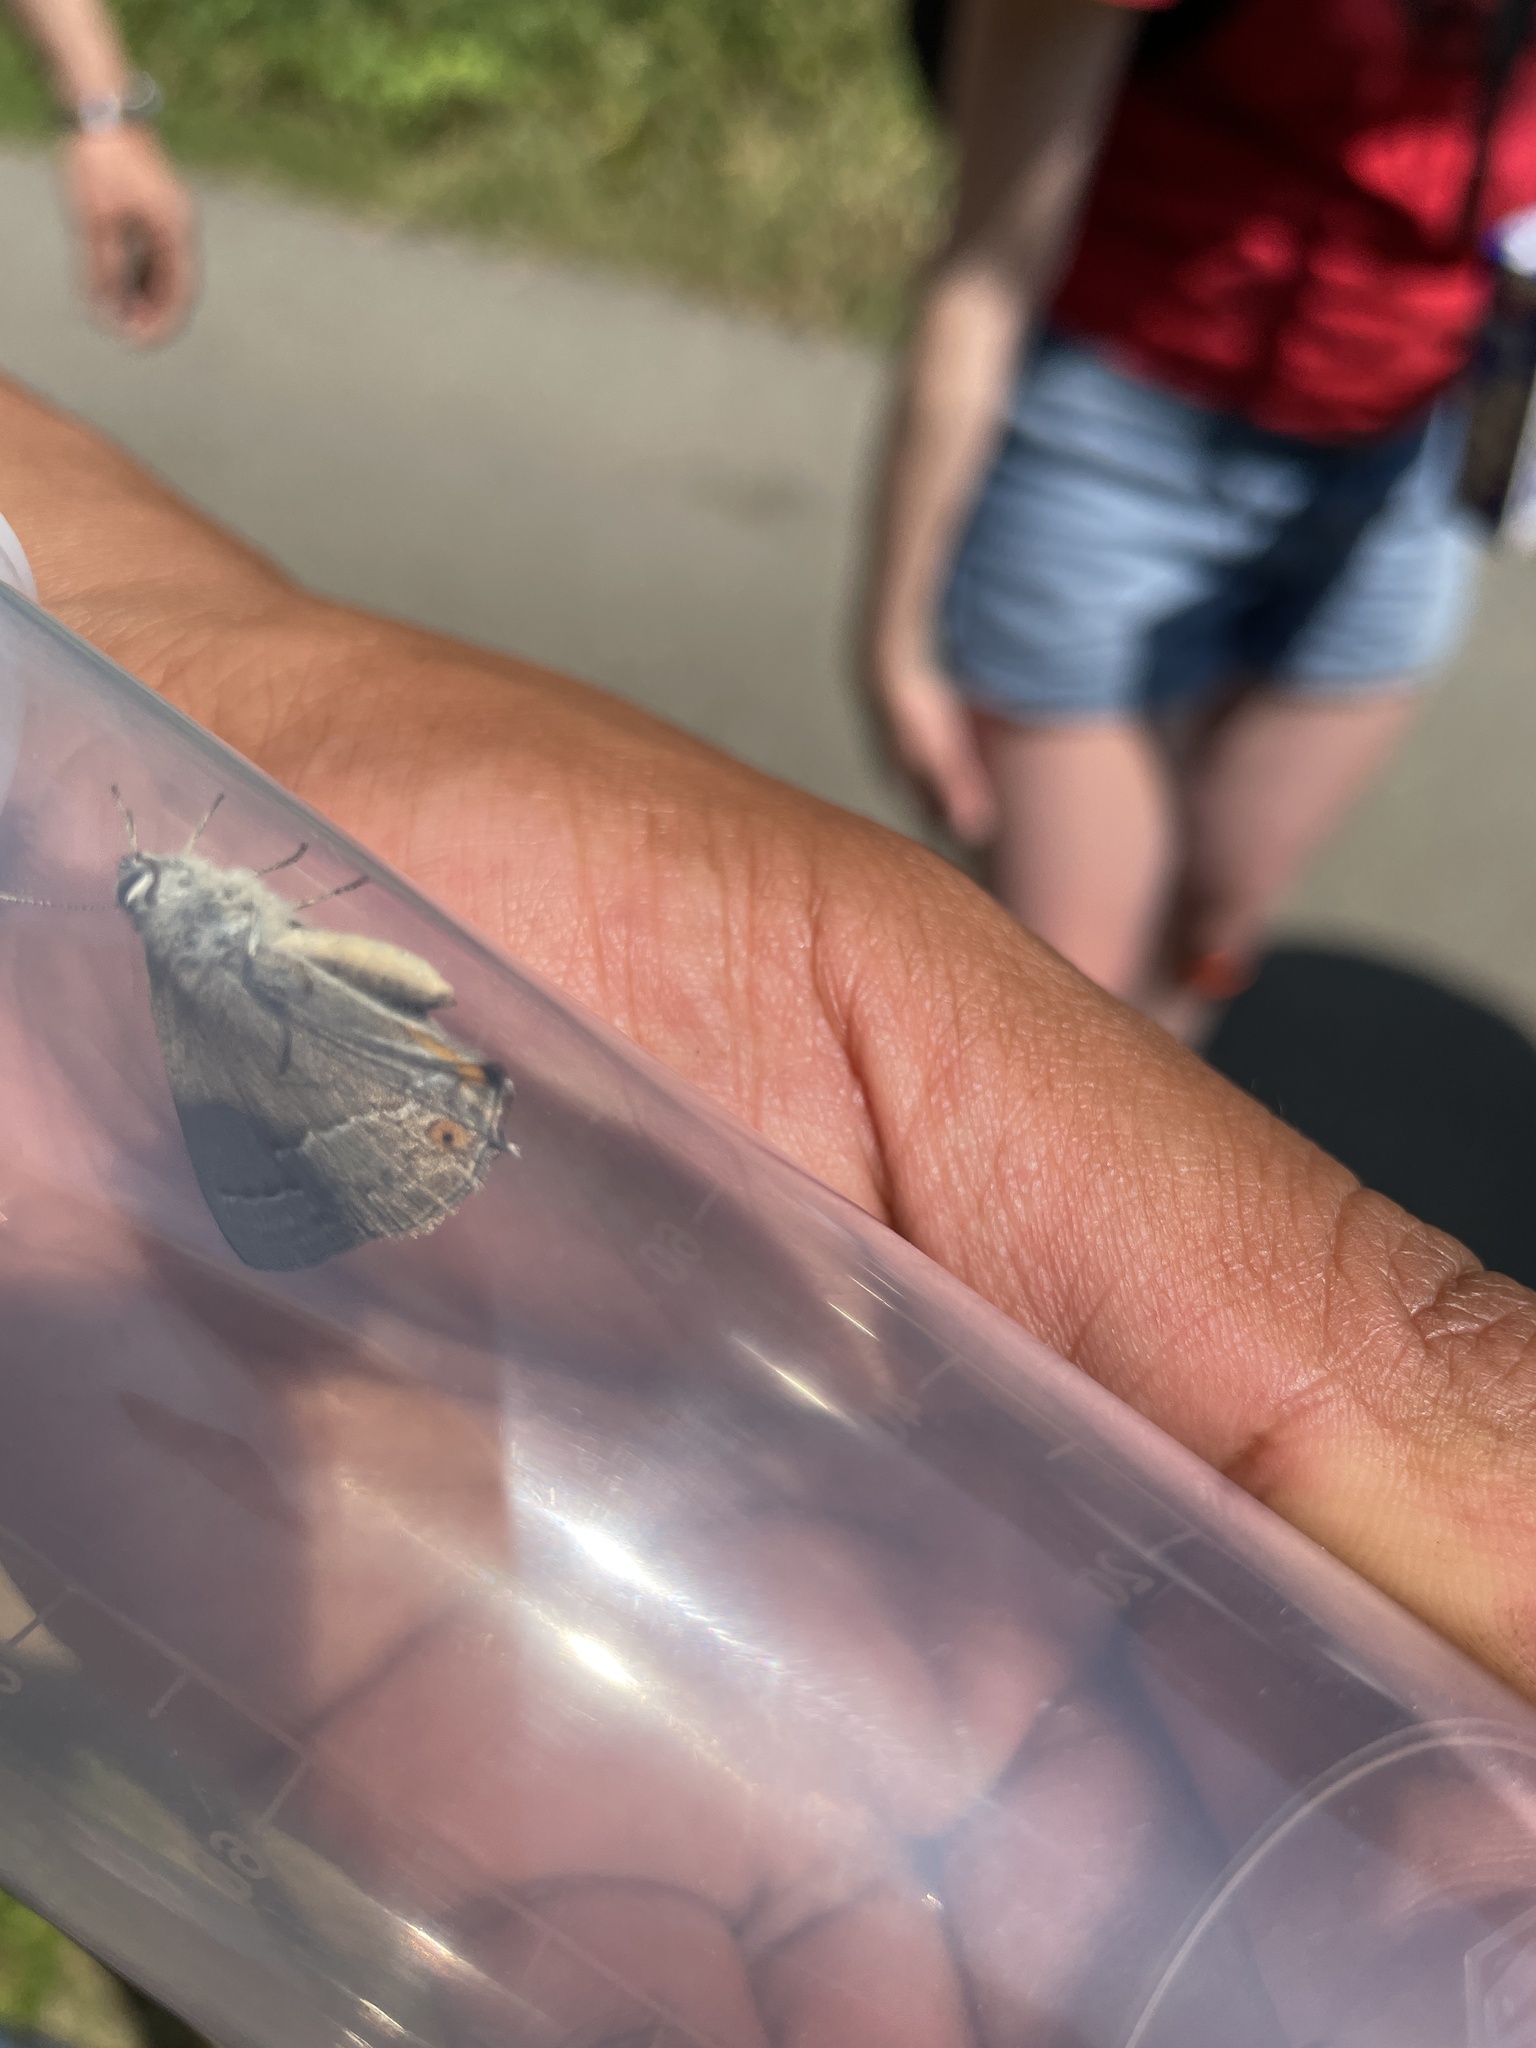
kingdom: Animalia
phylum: Arthropoda
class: Insecta
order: Lepidoptera
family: Lycaenidae
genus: Quercusia
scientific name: Quercusia quercus
